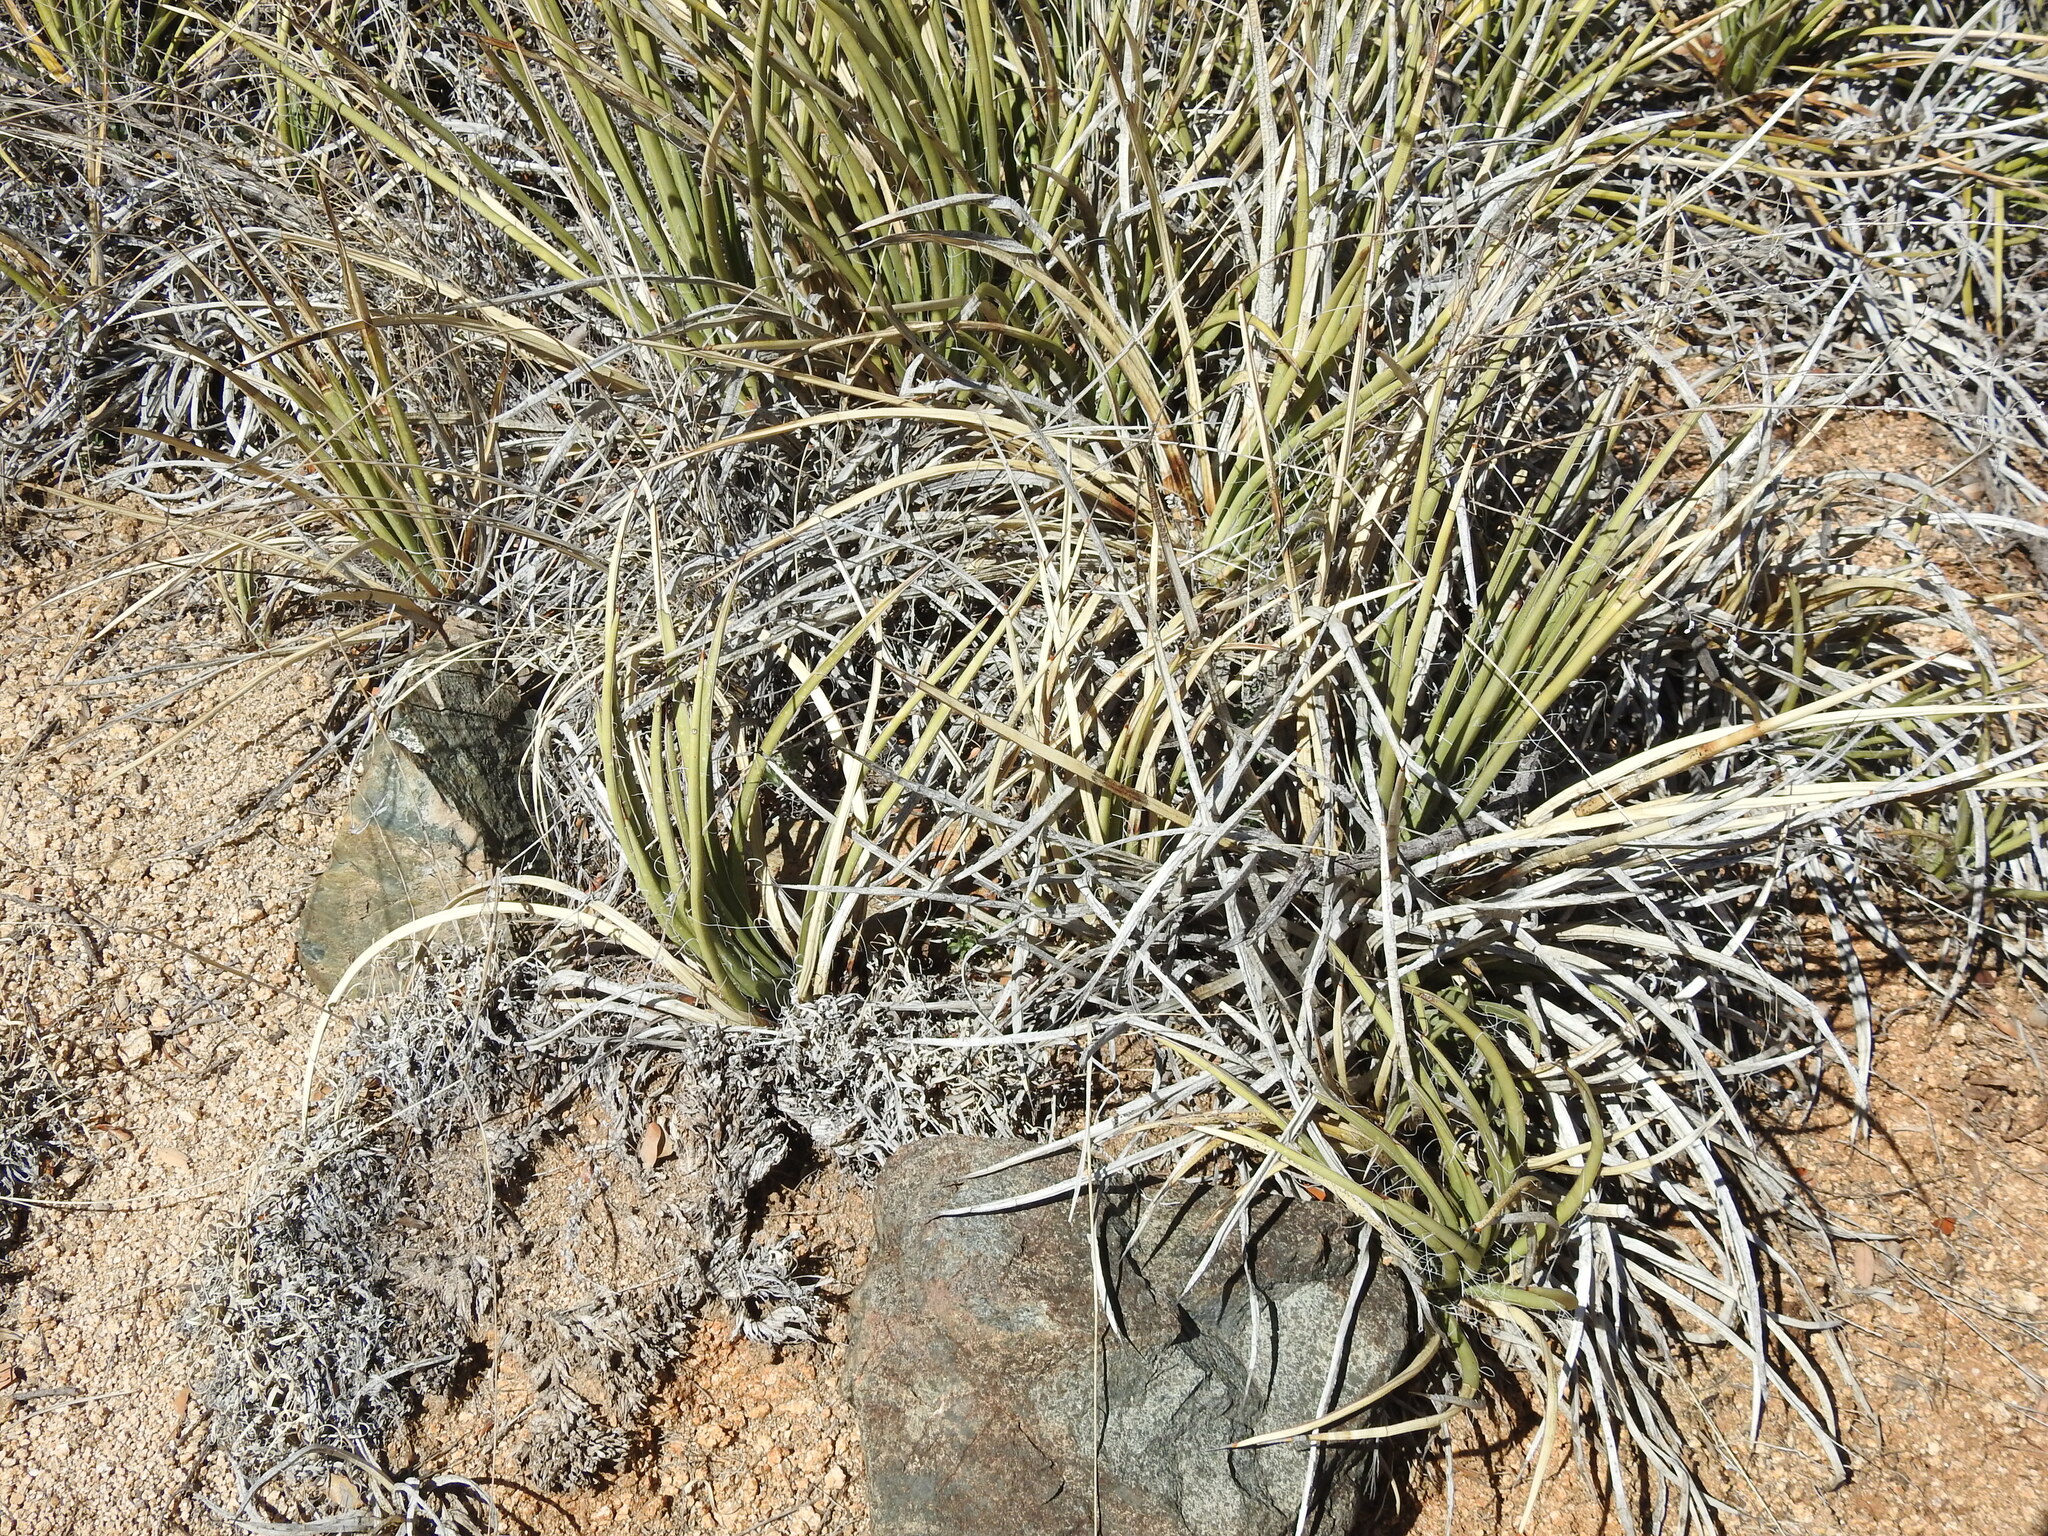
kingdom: Plantae
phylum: Tracheophyta
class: Liliopsida
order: Asparagales
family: Asparagaceae
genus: Agave
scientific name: Agave schottii
